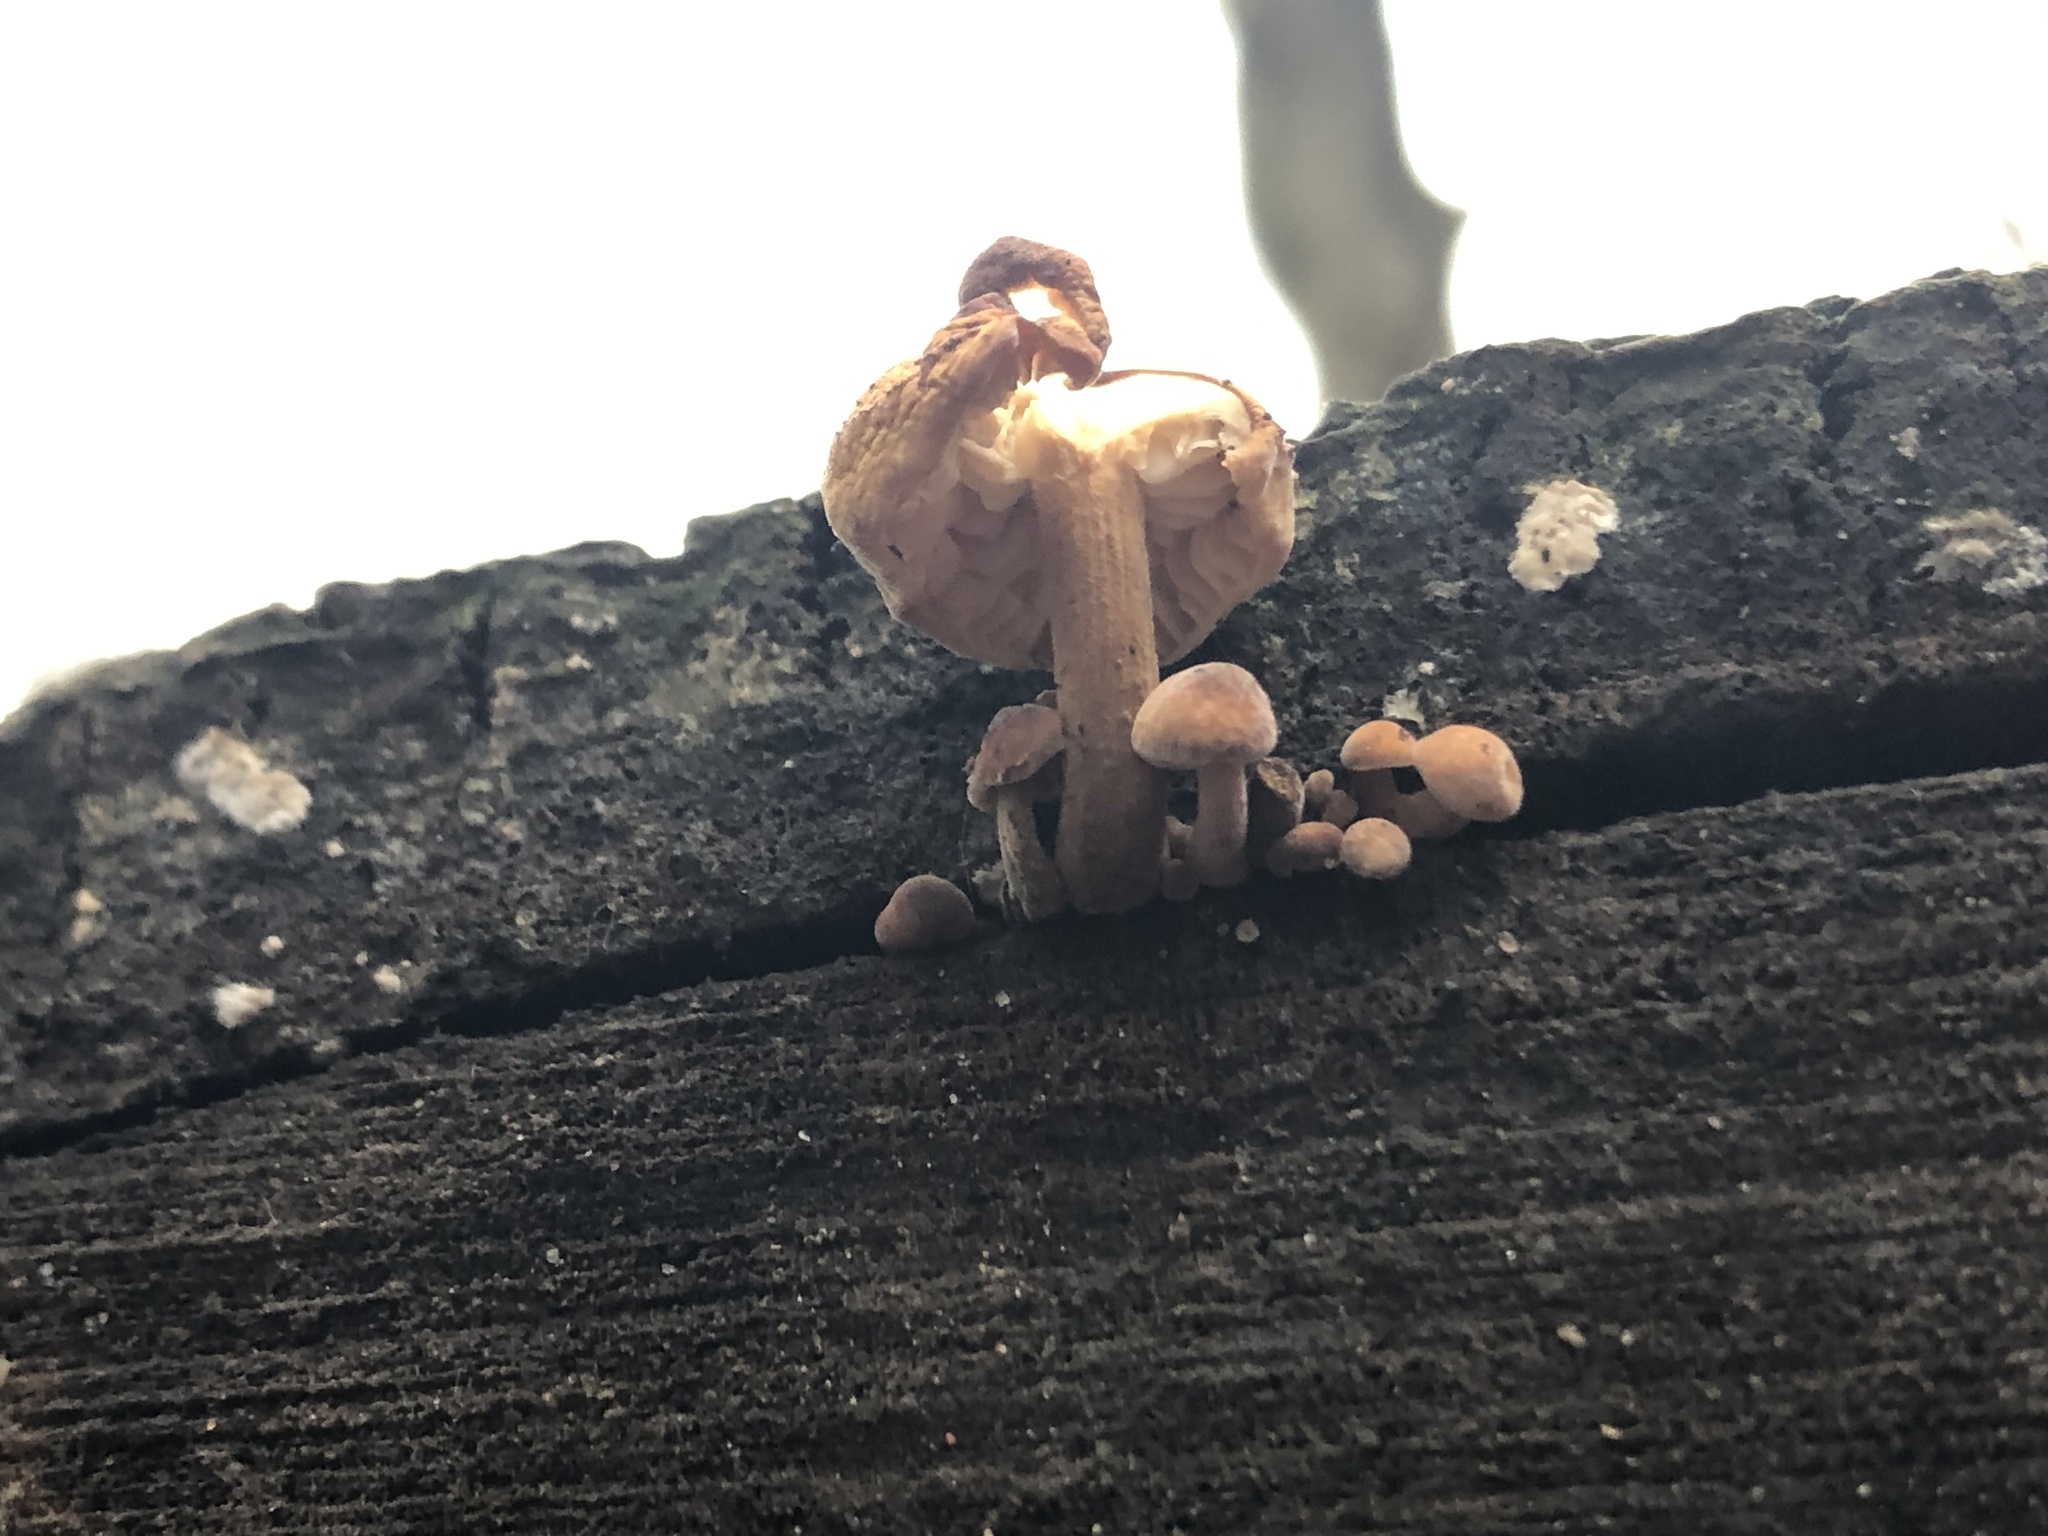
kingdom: Fungi
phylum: Basidiomycota
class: Agaricomycetes
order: Agaricales
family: Physalacriaceae
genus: Flammulina
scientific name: Flammulina
